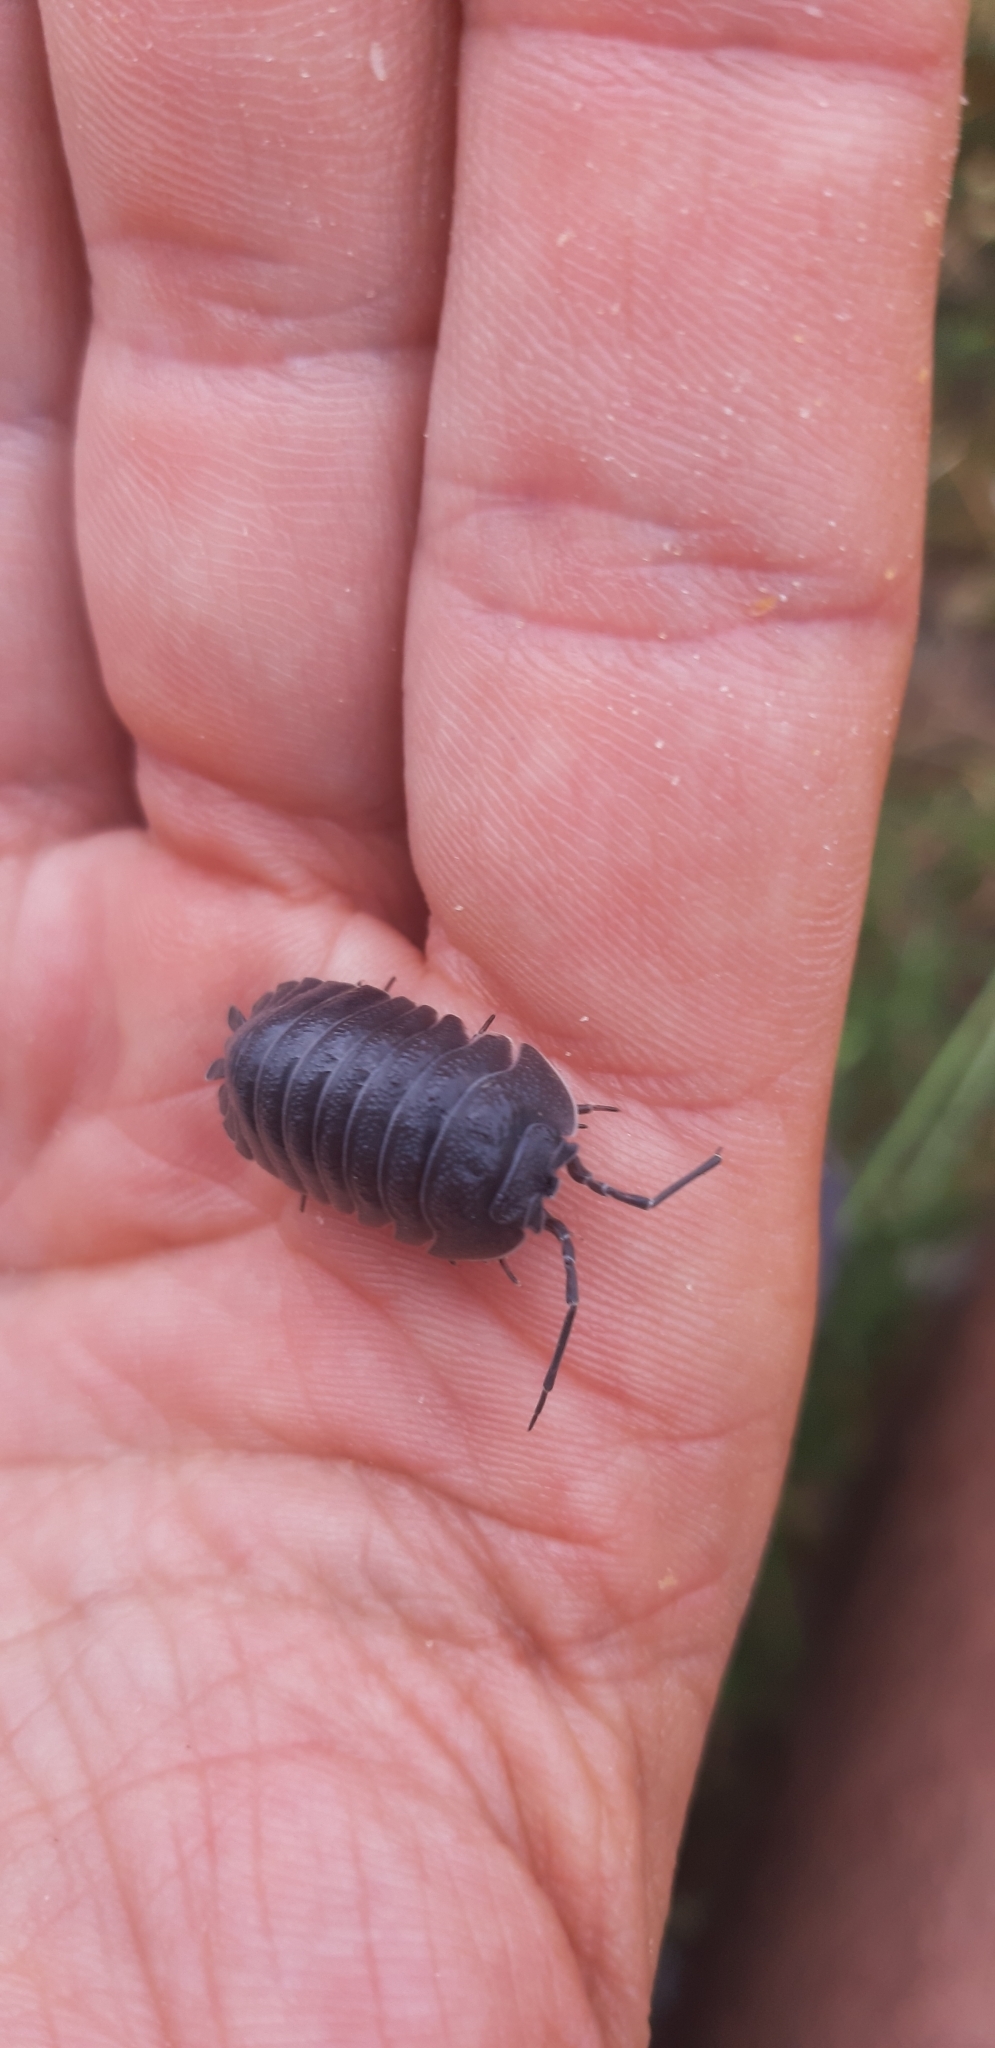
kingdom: Animalia
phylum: Arthropoda
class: Malacostraca
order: Isopoda
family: Armadillidiidae
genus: Armadillidium
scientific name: Armadillidium peraccae
